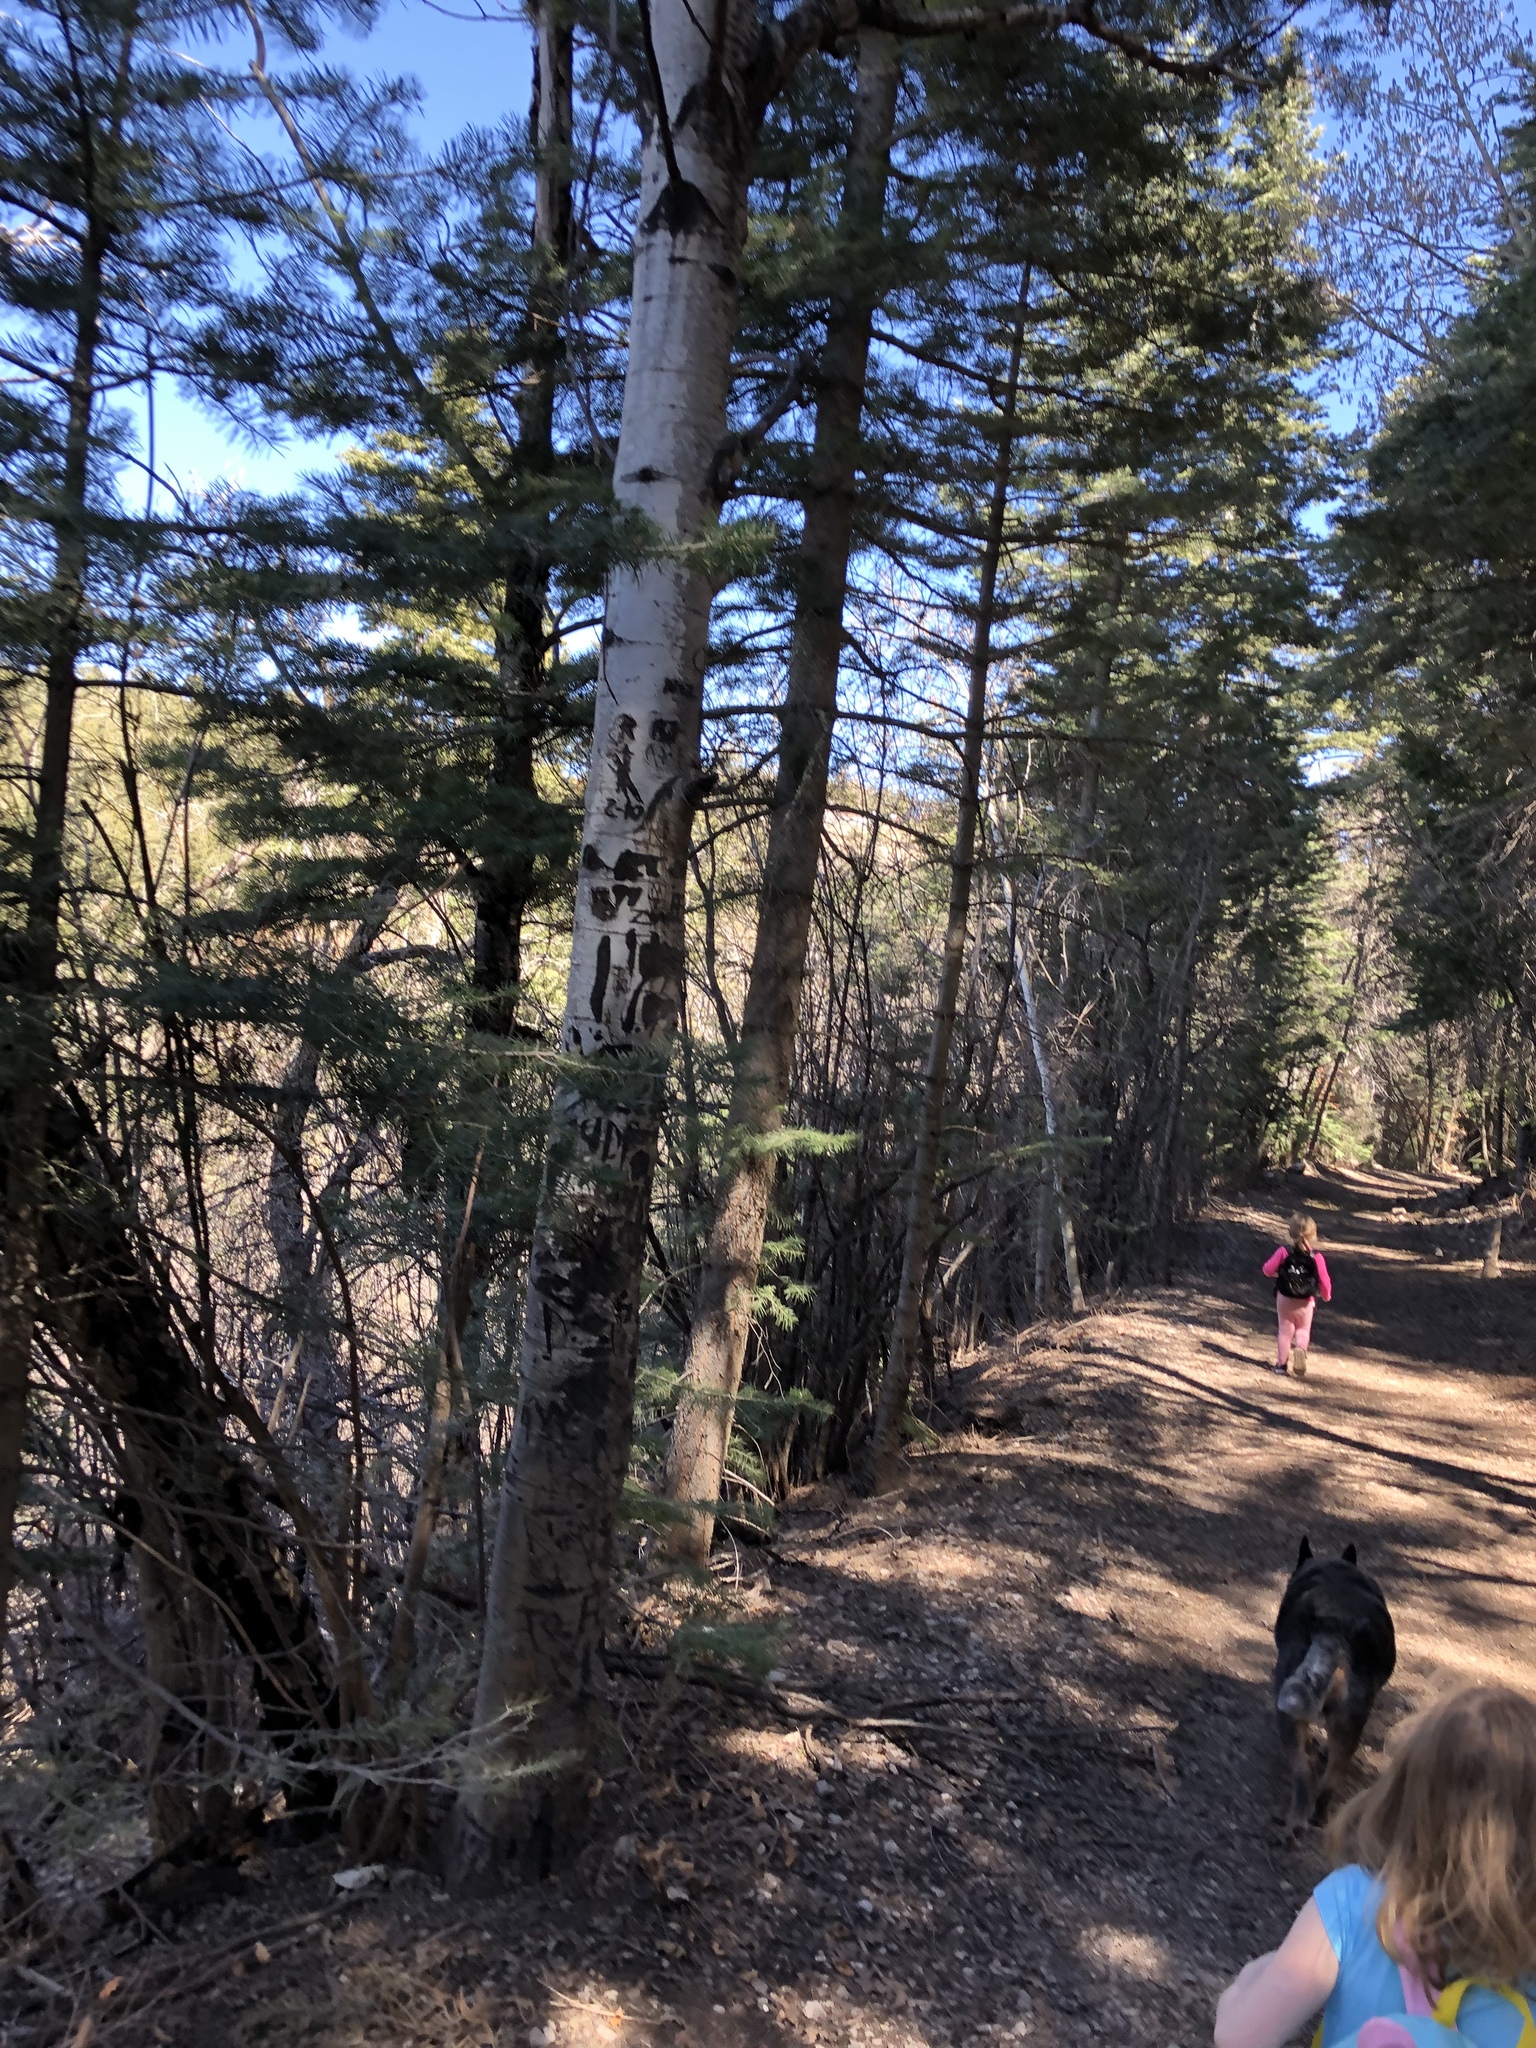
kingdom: Plantae
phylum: Tracheophyta
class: Magnoliopsida
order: Malpighiales
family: Salicaceae
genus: Populus
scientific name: Populus tremuloides
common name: Quaking aspen
